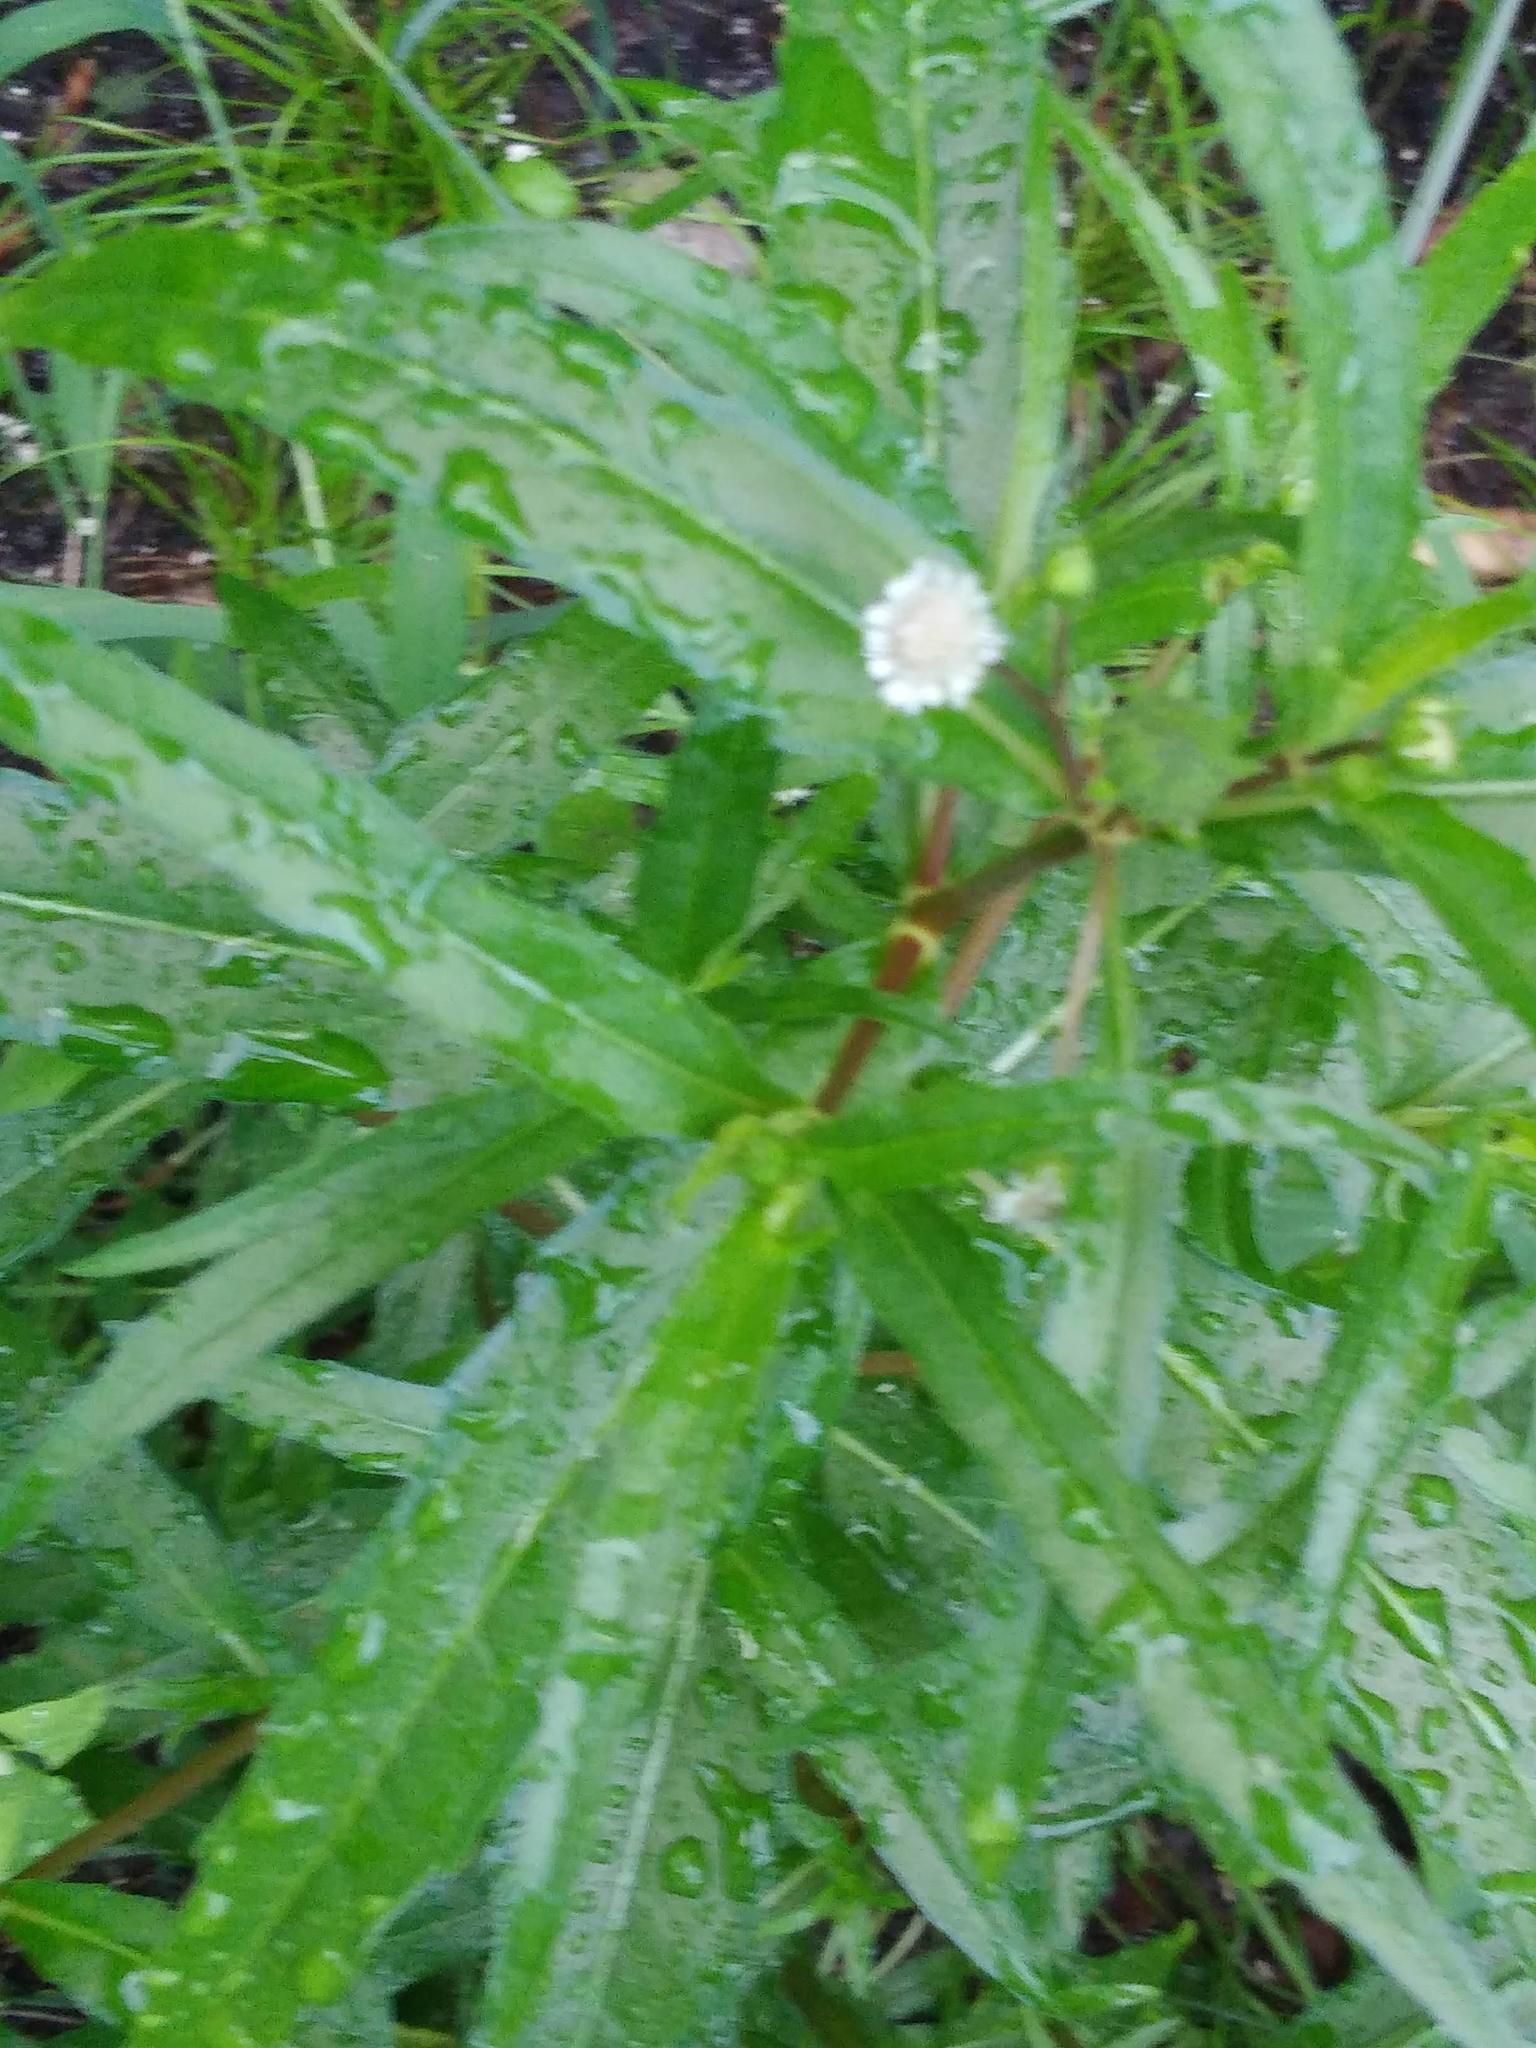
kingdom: Plantae
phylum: Tracheophyta
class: Magnoliopsida
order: Asterales
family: Asteraceae
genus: Eclipta
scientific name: Eclipta prostrata
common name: False daisy
